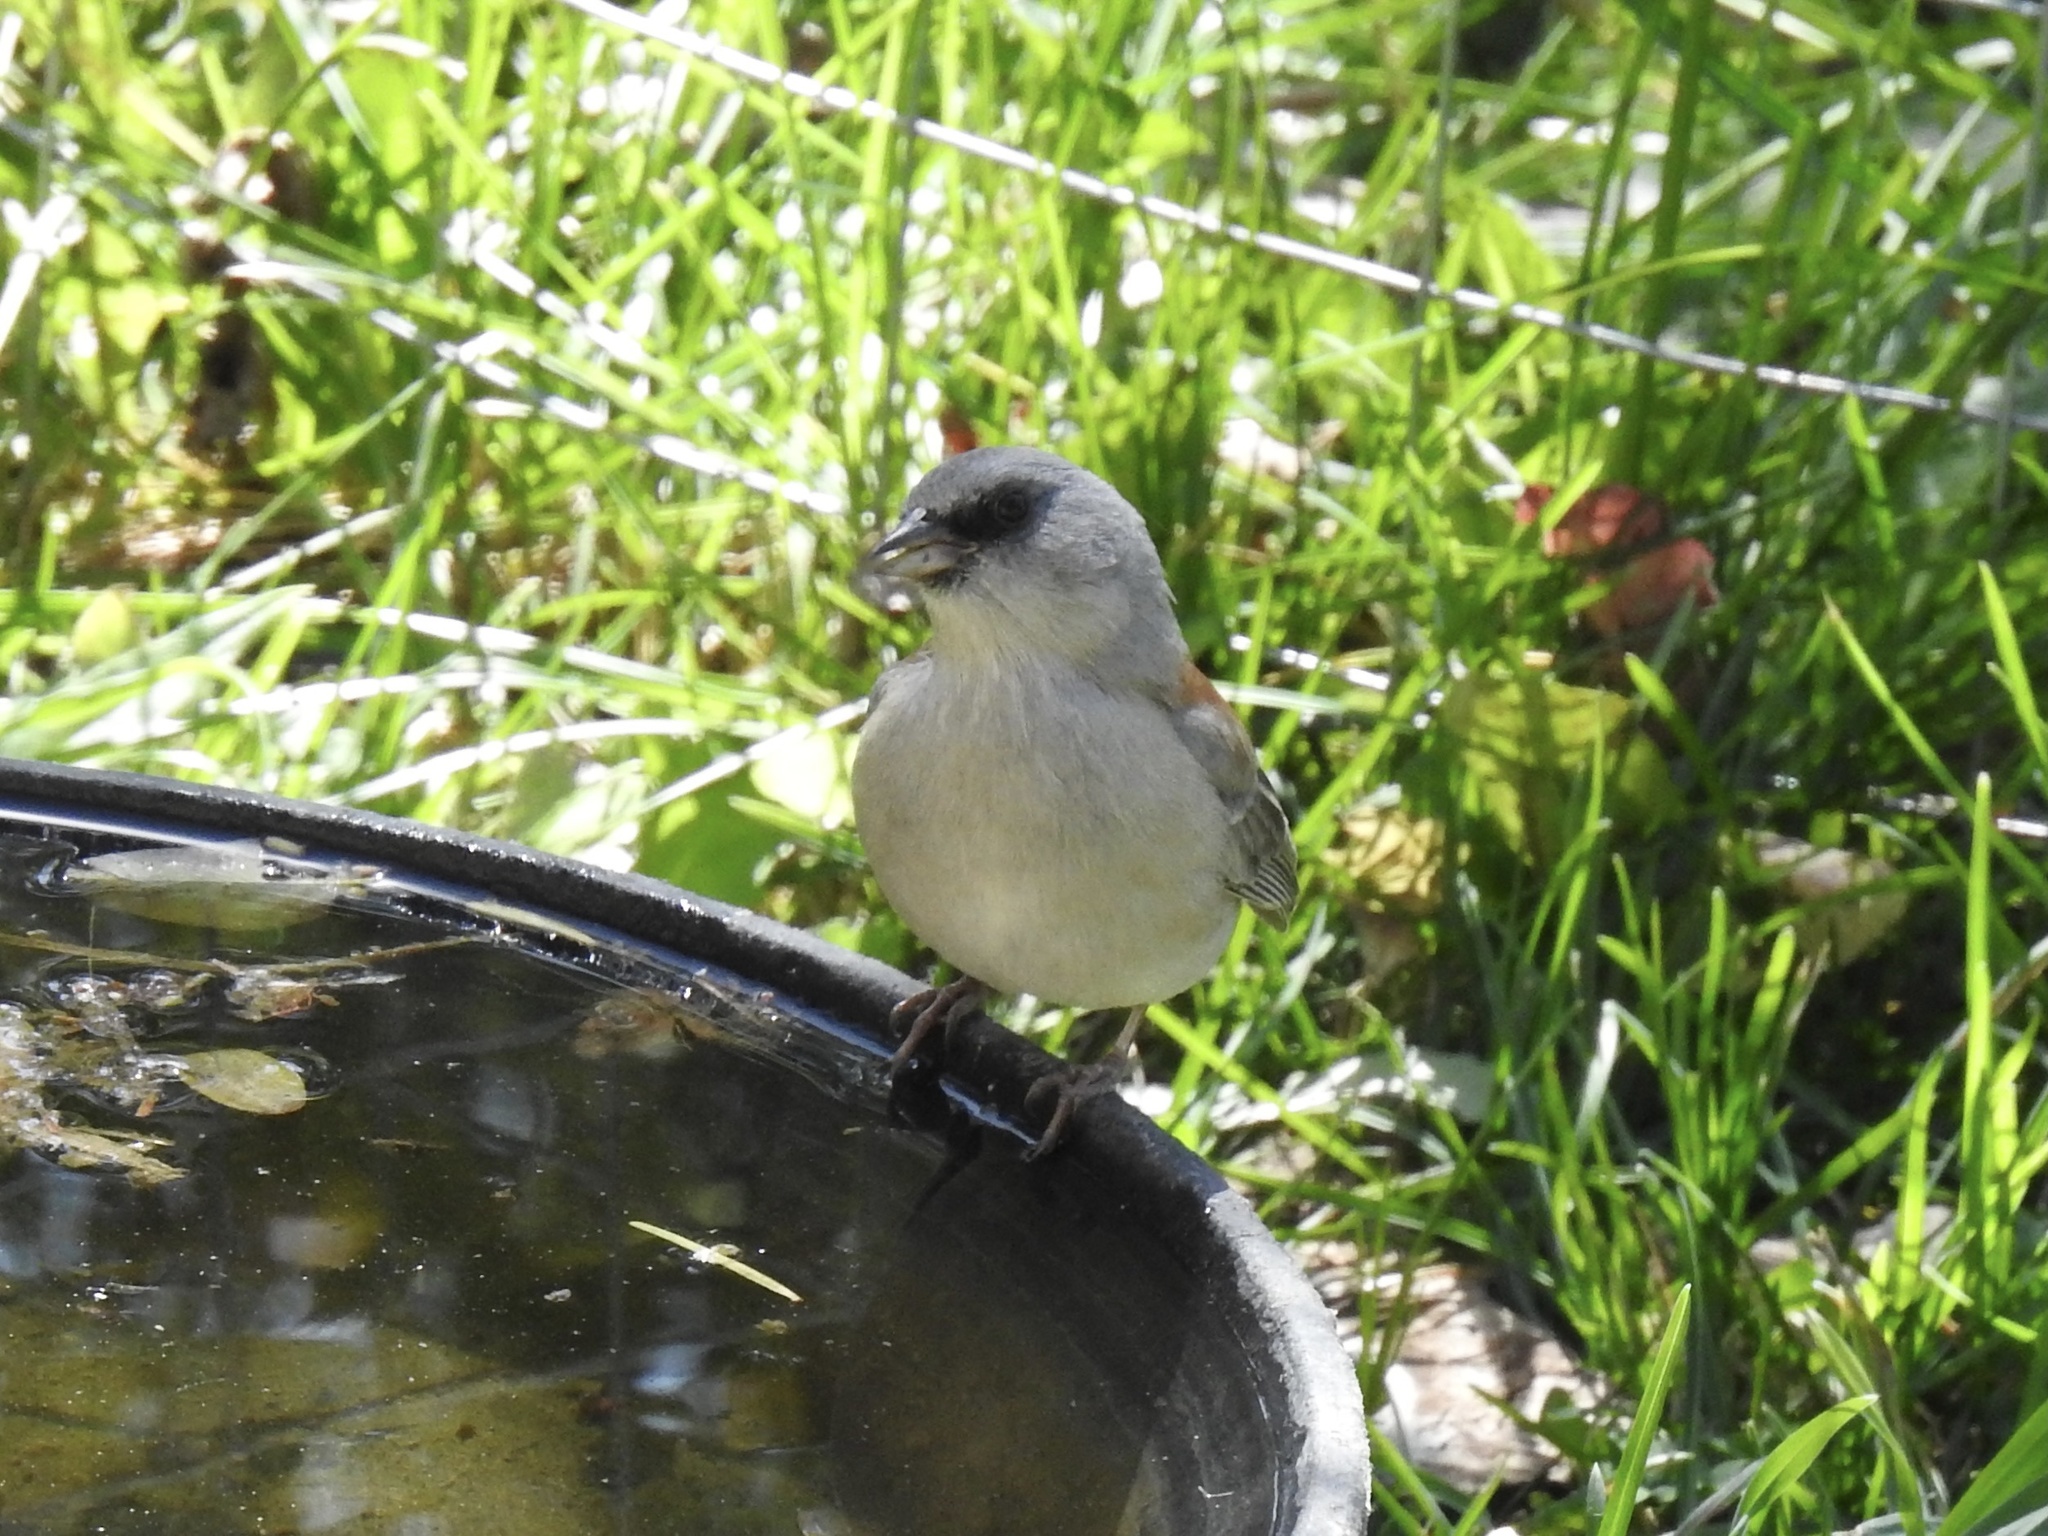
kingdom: Animalia
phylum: Chordata
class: Aves
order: Passeriformes
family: Passerellidae
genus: Junco
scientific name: Junco hyemalis
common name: Dark-eyed junco
